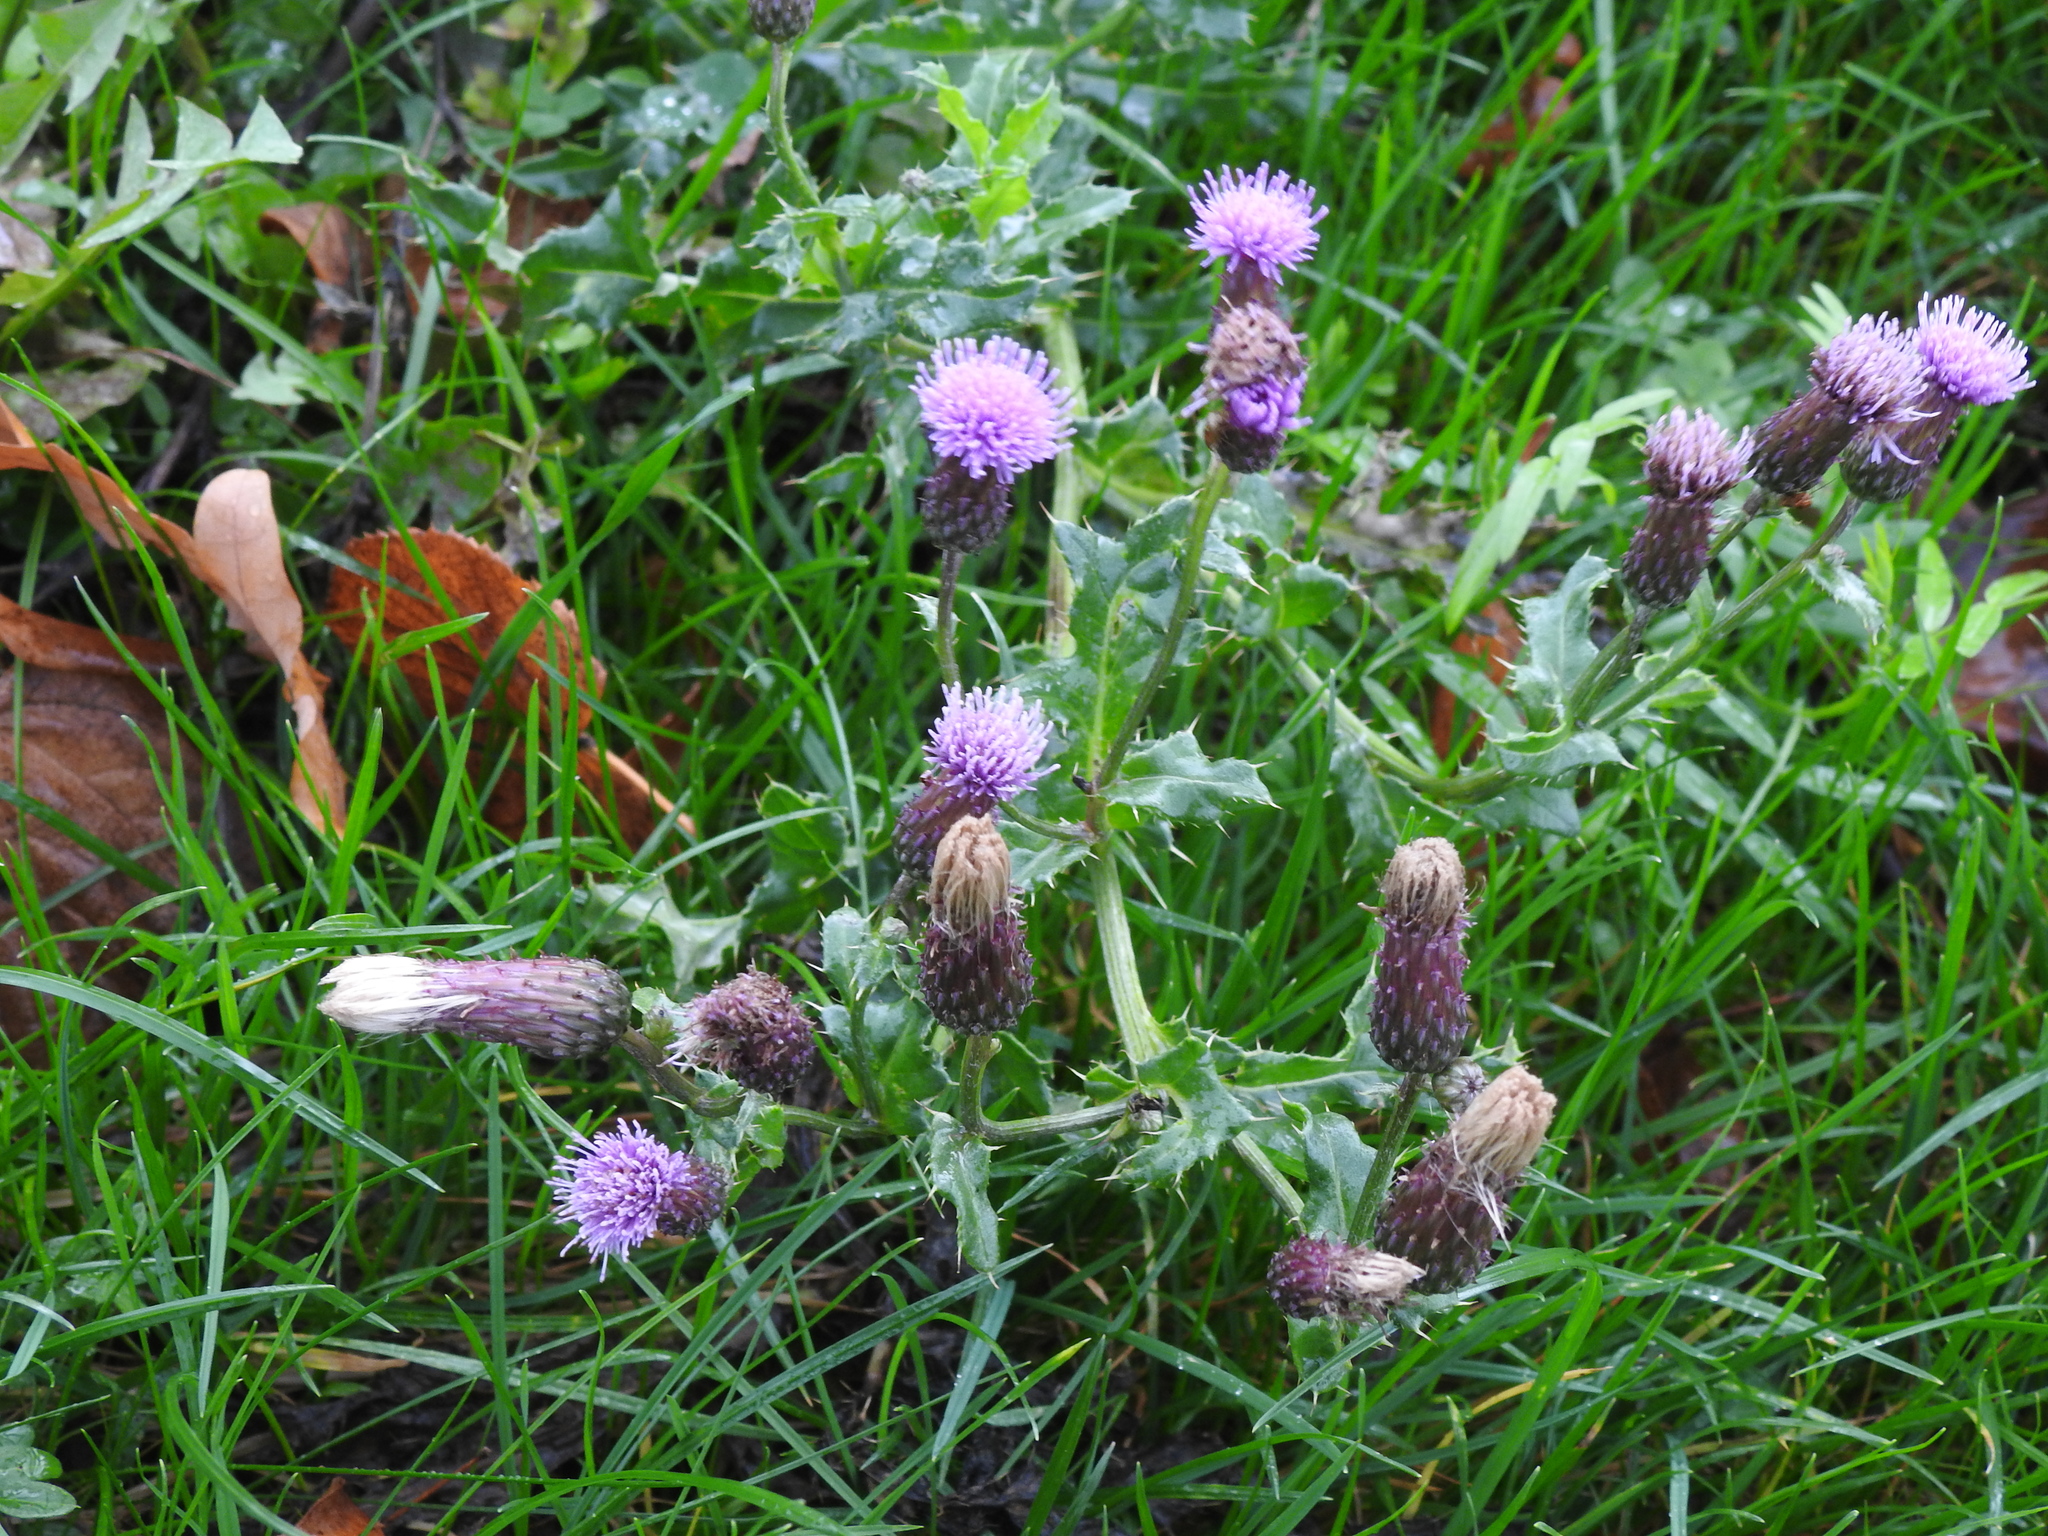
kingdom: Plantae
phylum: Tracheophyta
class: Magnoliopsida
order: Asterales
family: Asteraceae
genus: Cirsium
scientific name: Cirsium arvense
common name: Creeping thistle
